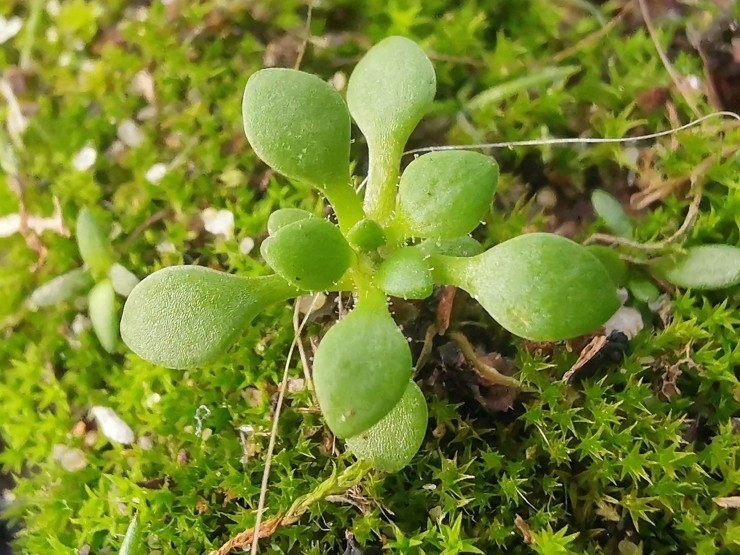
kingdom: Plantae
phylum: Tracheophyta
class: Magnoliopsida
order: Saxifragales
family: Saxifragaceae
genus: Saxifraga
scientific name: Saxifraga tridactylites
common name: Rue-leaved saxifrage
